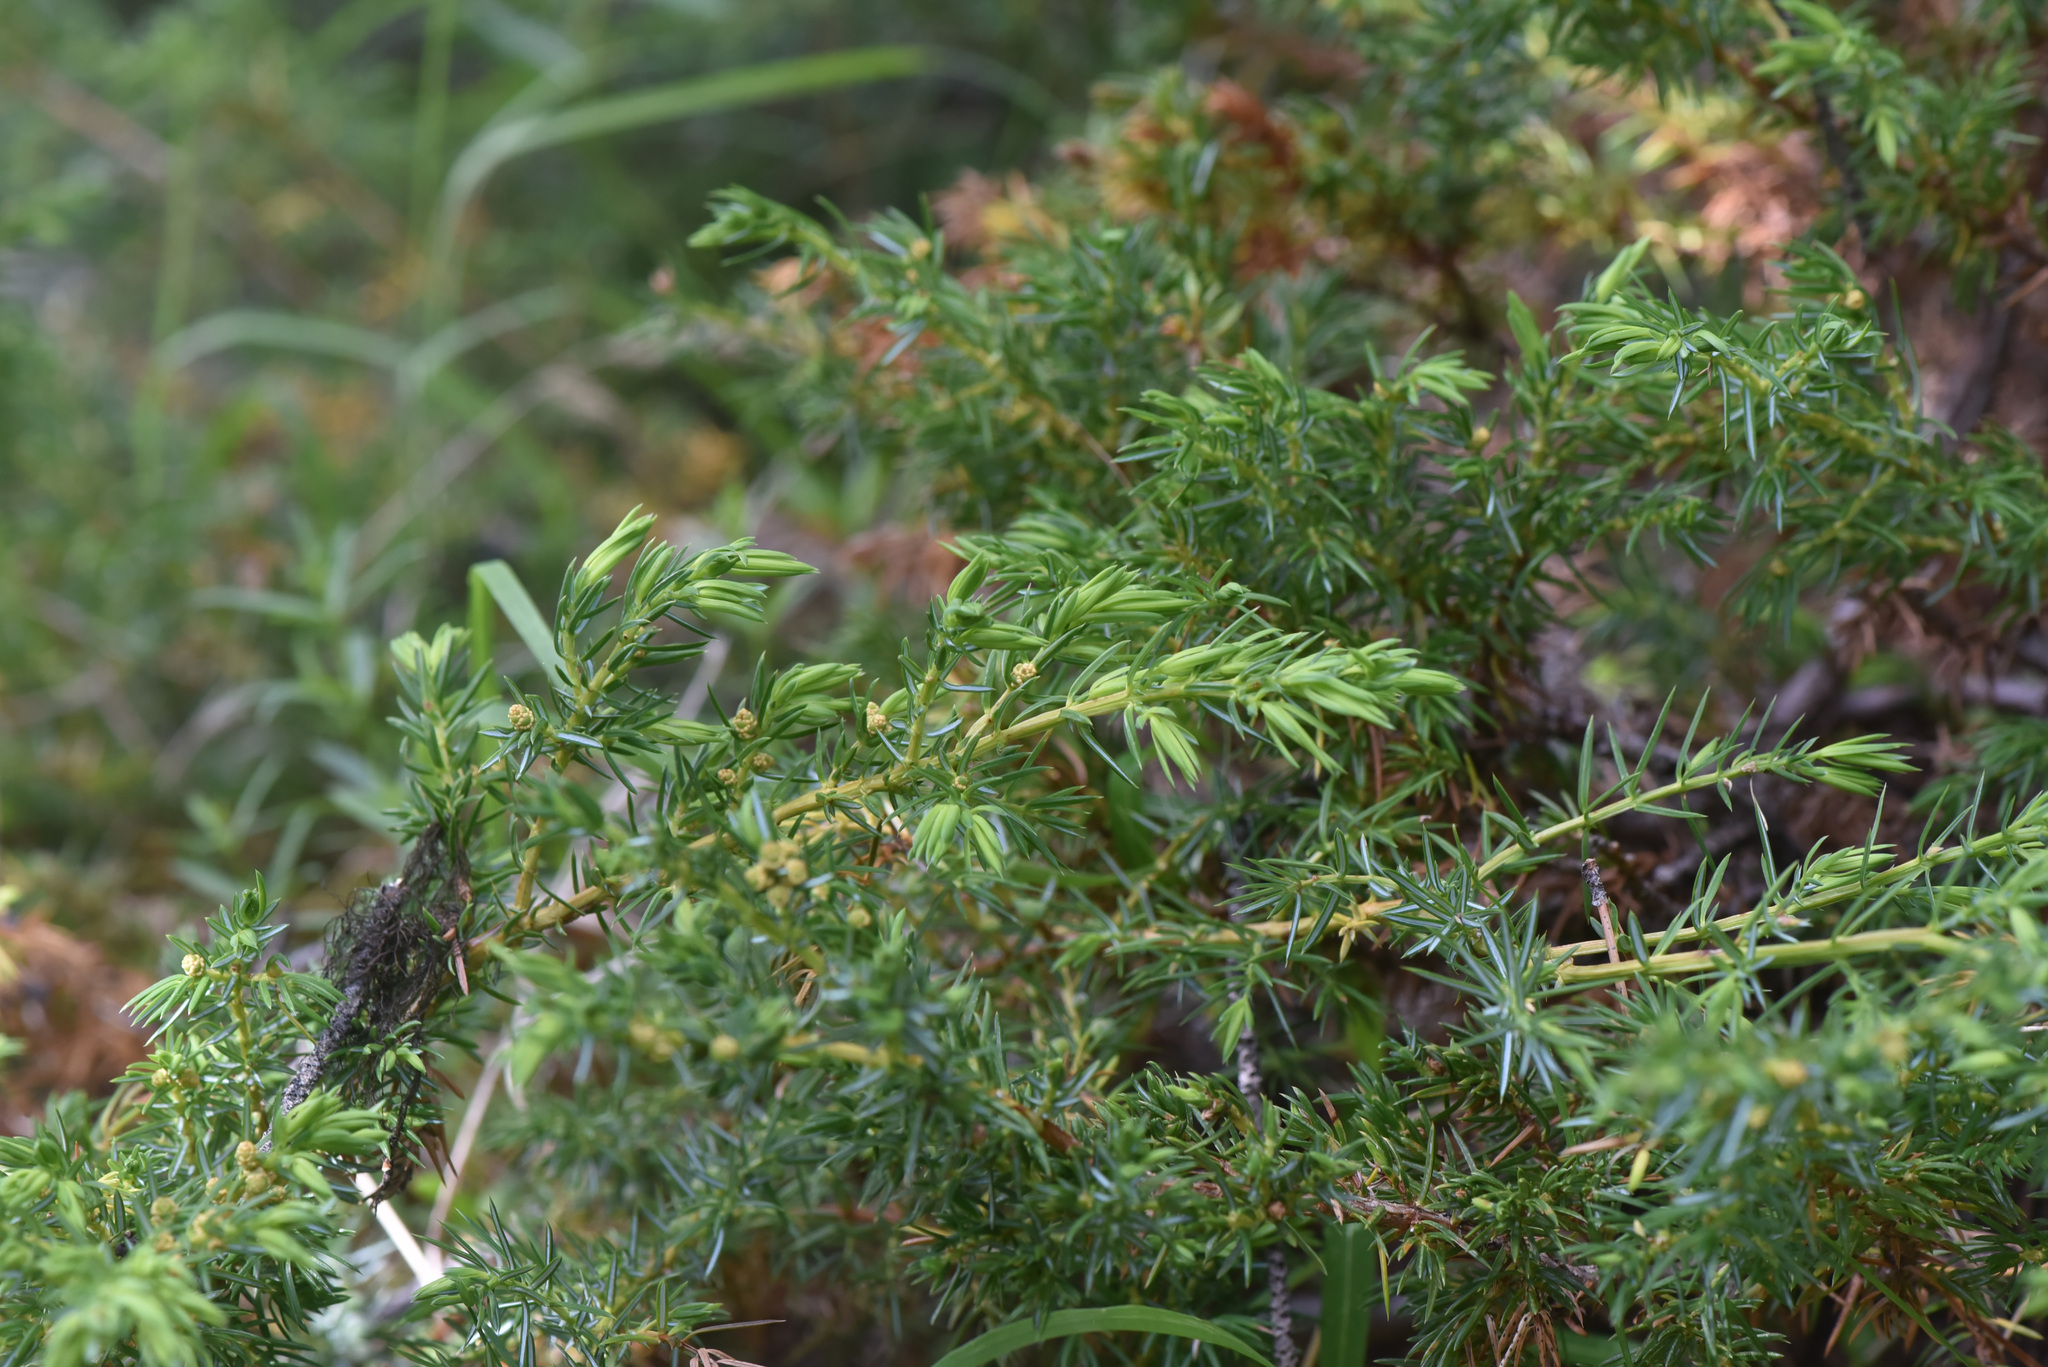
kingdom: Plantae
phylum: Tracheophyta
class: Pinopsida
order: Pinales
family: Cupressaceae
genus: Juniperus
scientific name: Juniperus communis
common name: Common juniper
